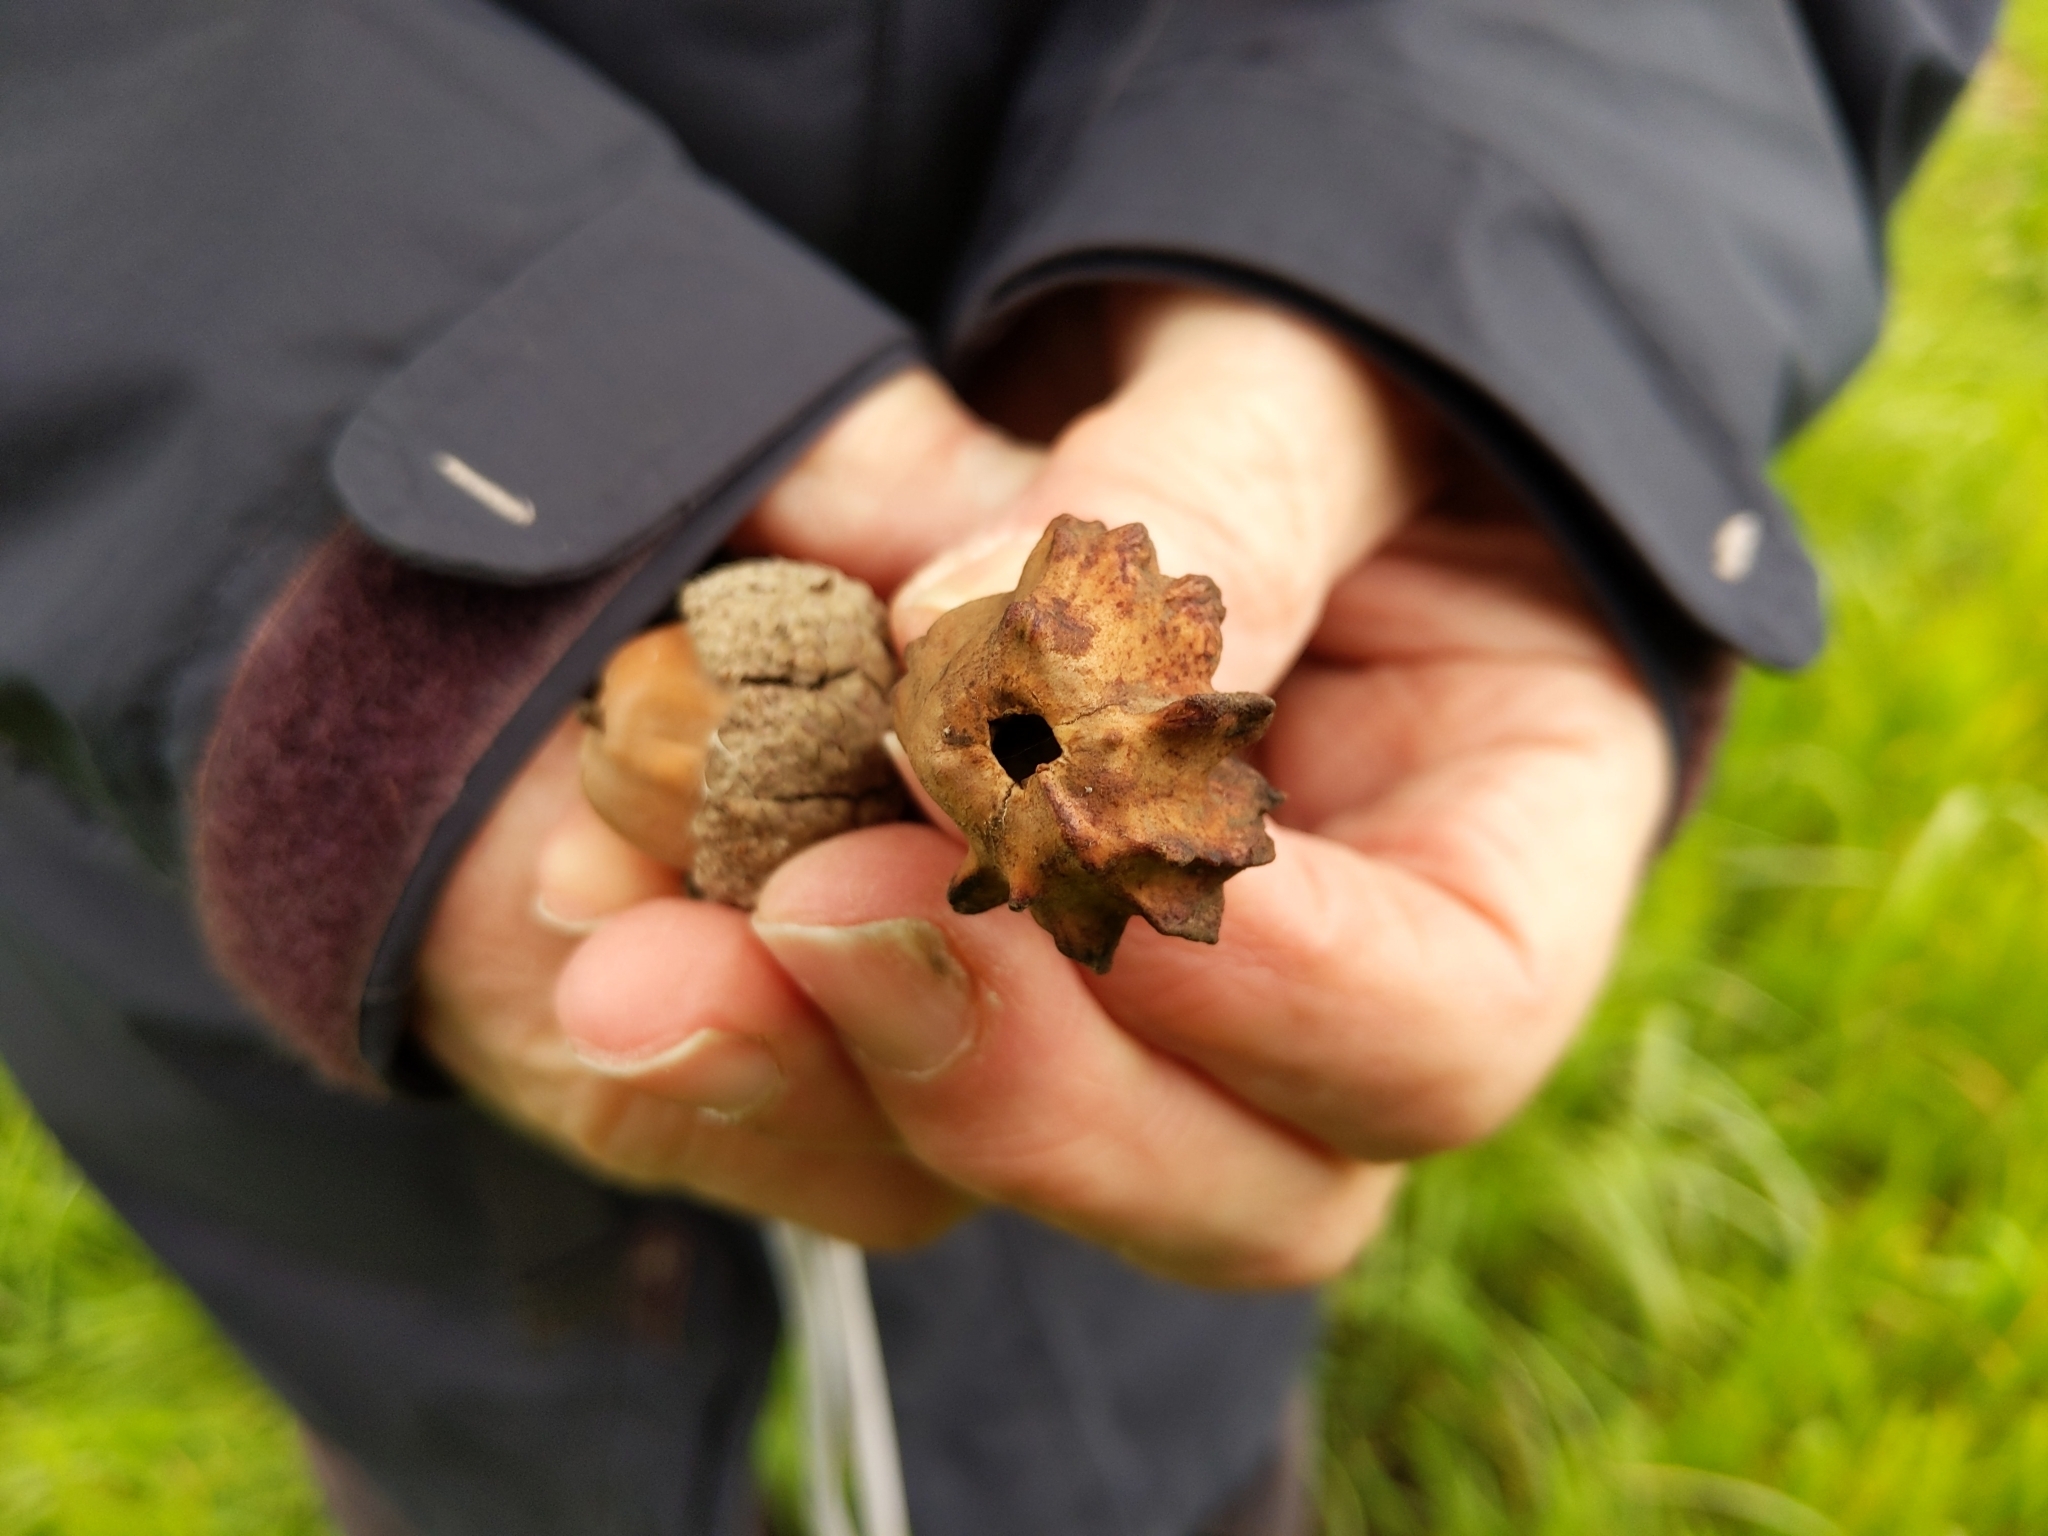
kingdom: Animalia
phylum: Arthropoda
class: Insecta
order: Hymenoptera
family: Cynipidae
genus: Andricus
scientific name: Andricus quercuscalicis
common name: Knopper gall
